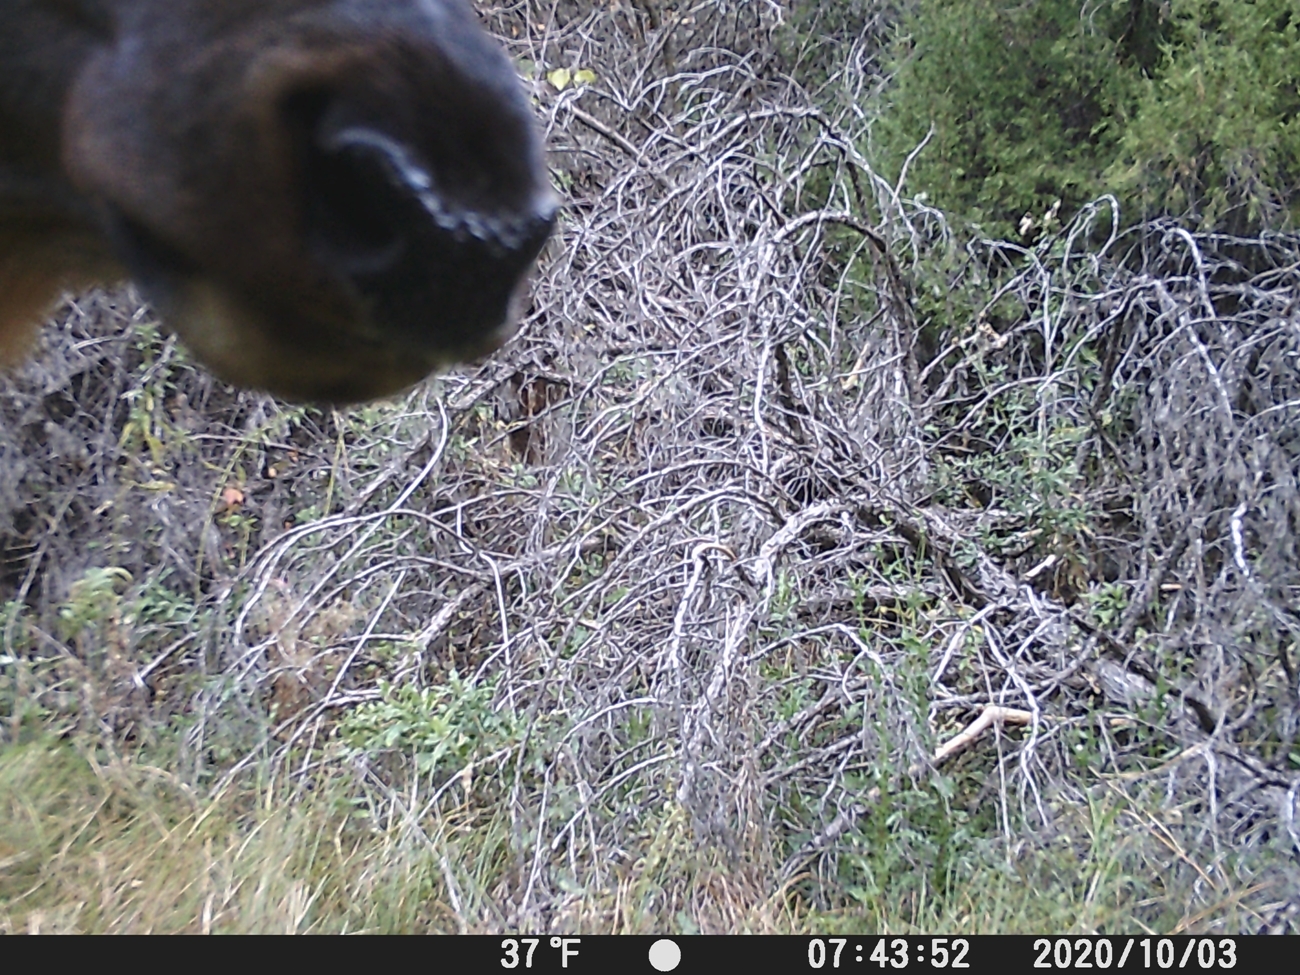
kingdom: Animalia
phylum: Chordata
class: Mammalia
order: Artiodactyla
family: Cervidae
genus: Cervus
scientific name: Cervus elaphus
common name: Red deer
